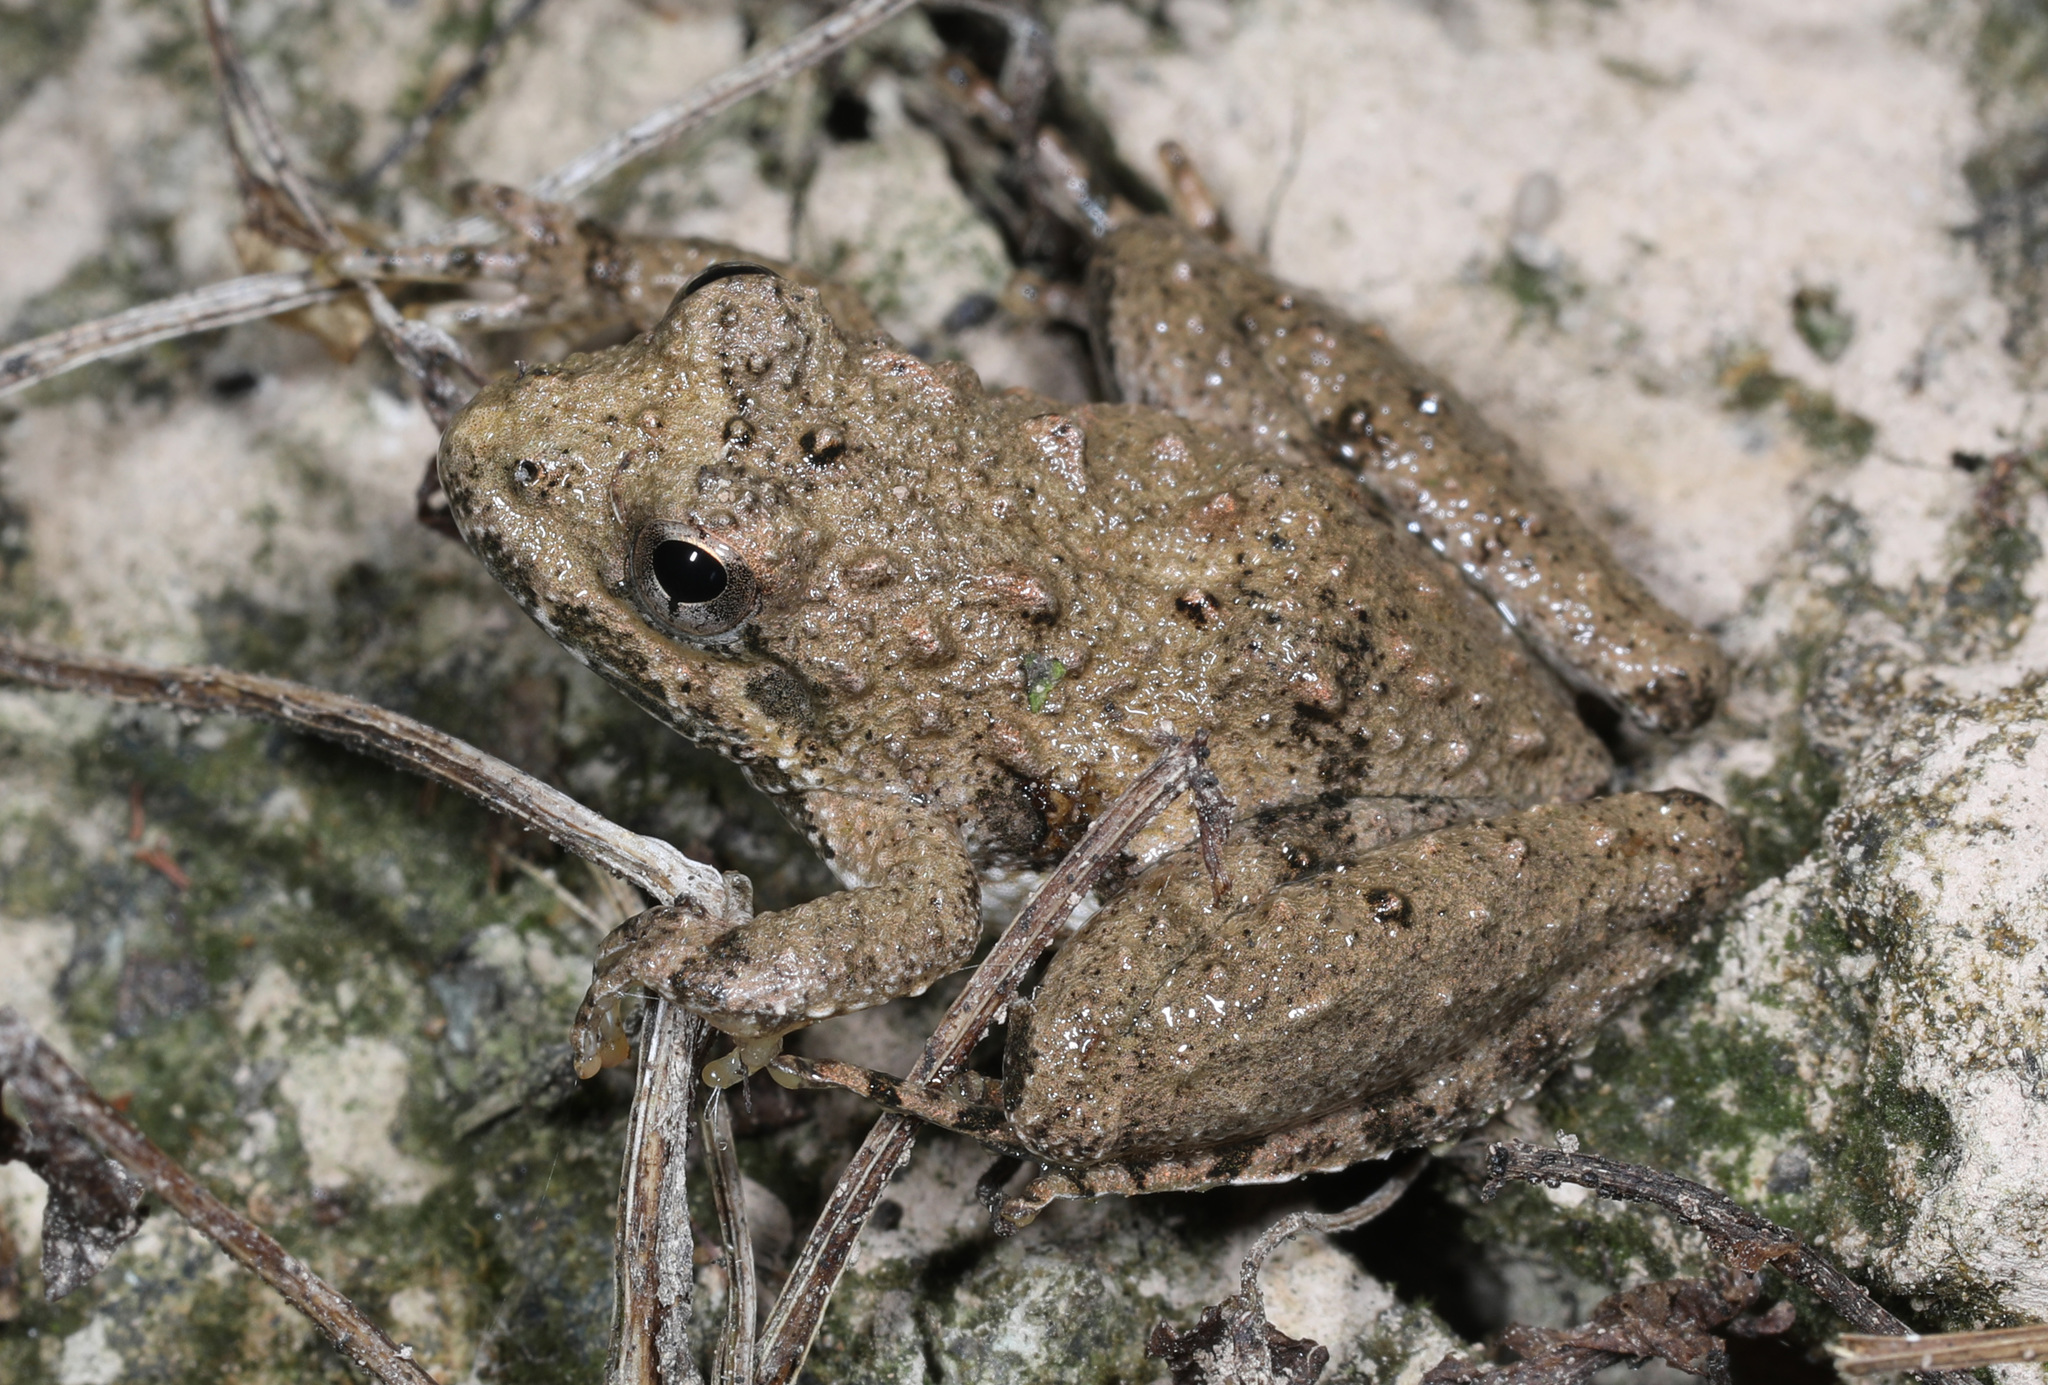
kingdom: Animalia
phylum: Chordata
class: Amphibia
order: Anura
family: Hylidae
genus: Acris
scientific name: Acris crepitans
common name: Northern cricket frog
